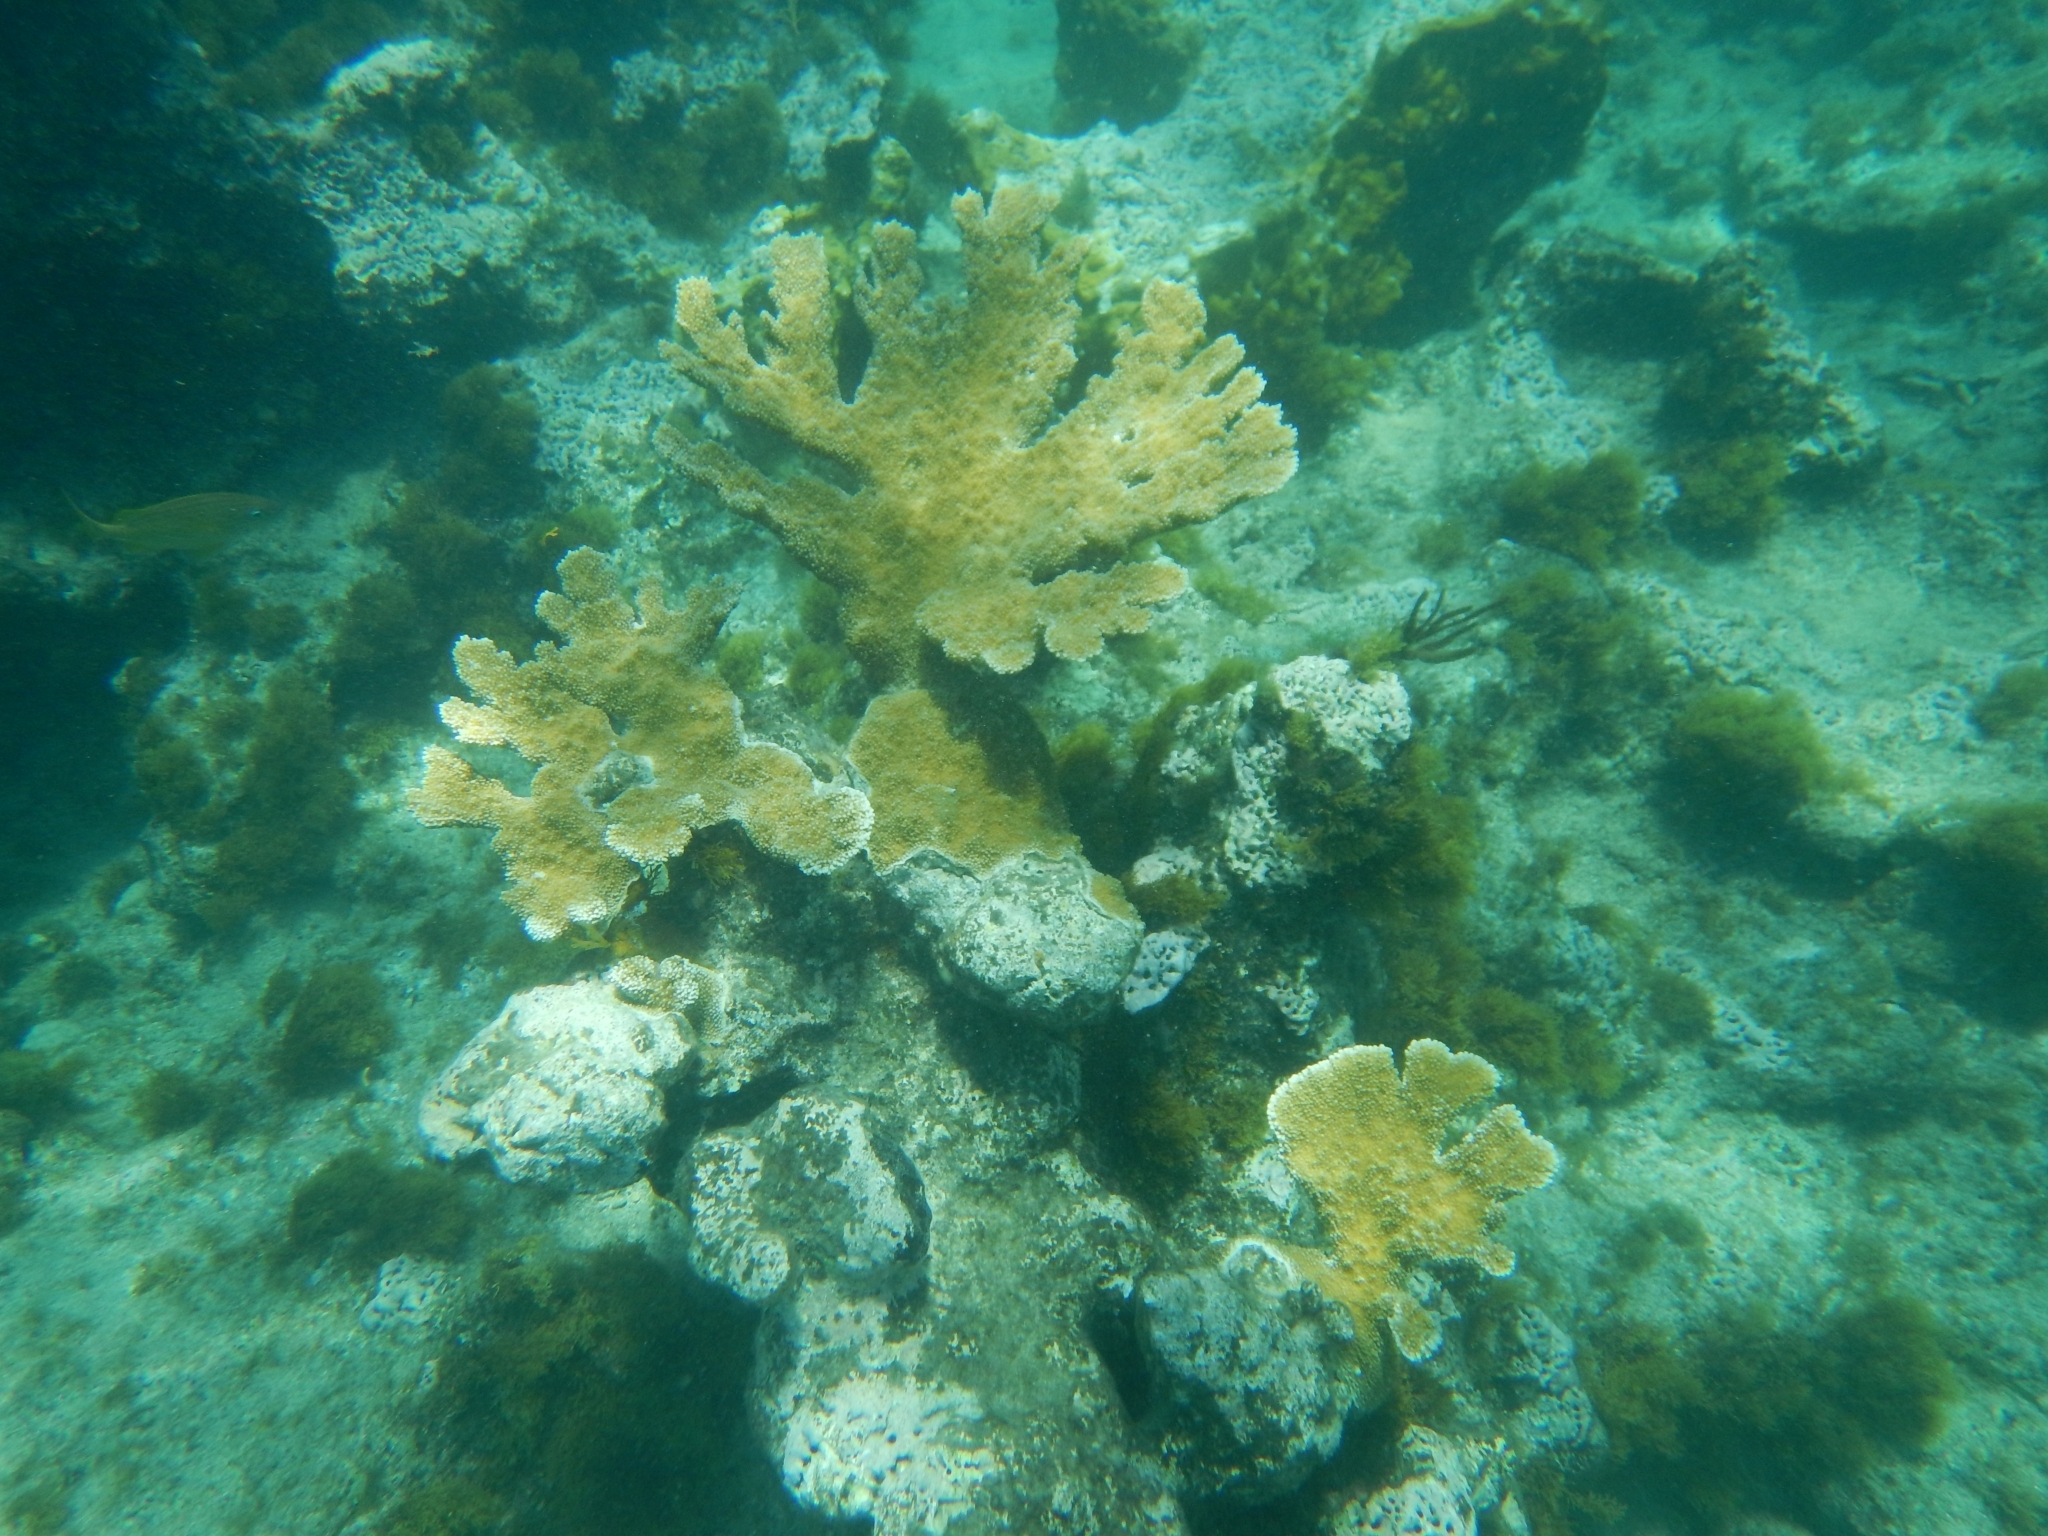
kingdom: Animalia
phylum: Cnidaria
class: Anthozoa
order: Scleractinia
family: Acroporidae
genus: Acropora
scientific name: Acropora palmata
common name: Elkhorn coral
